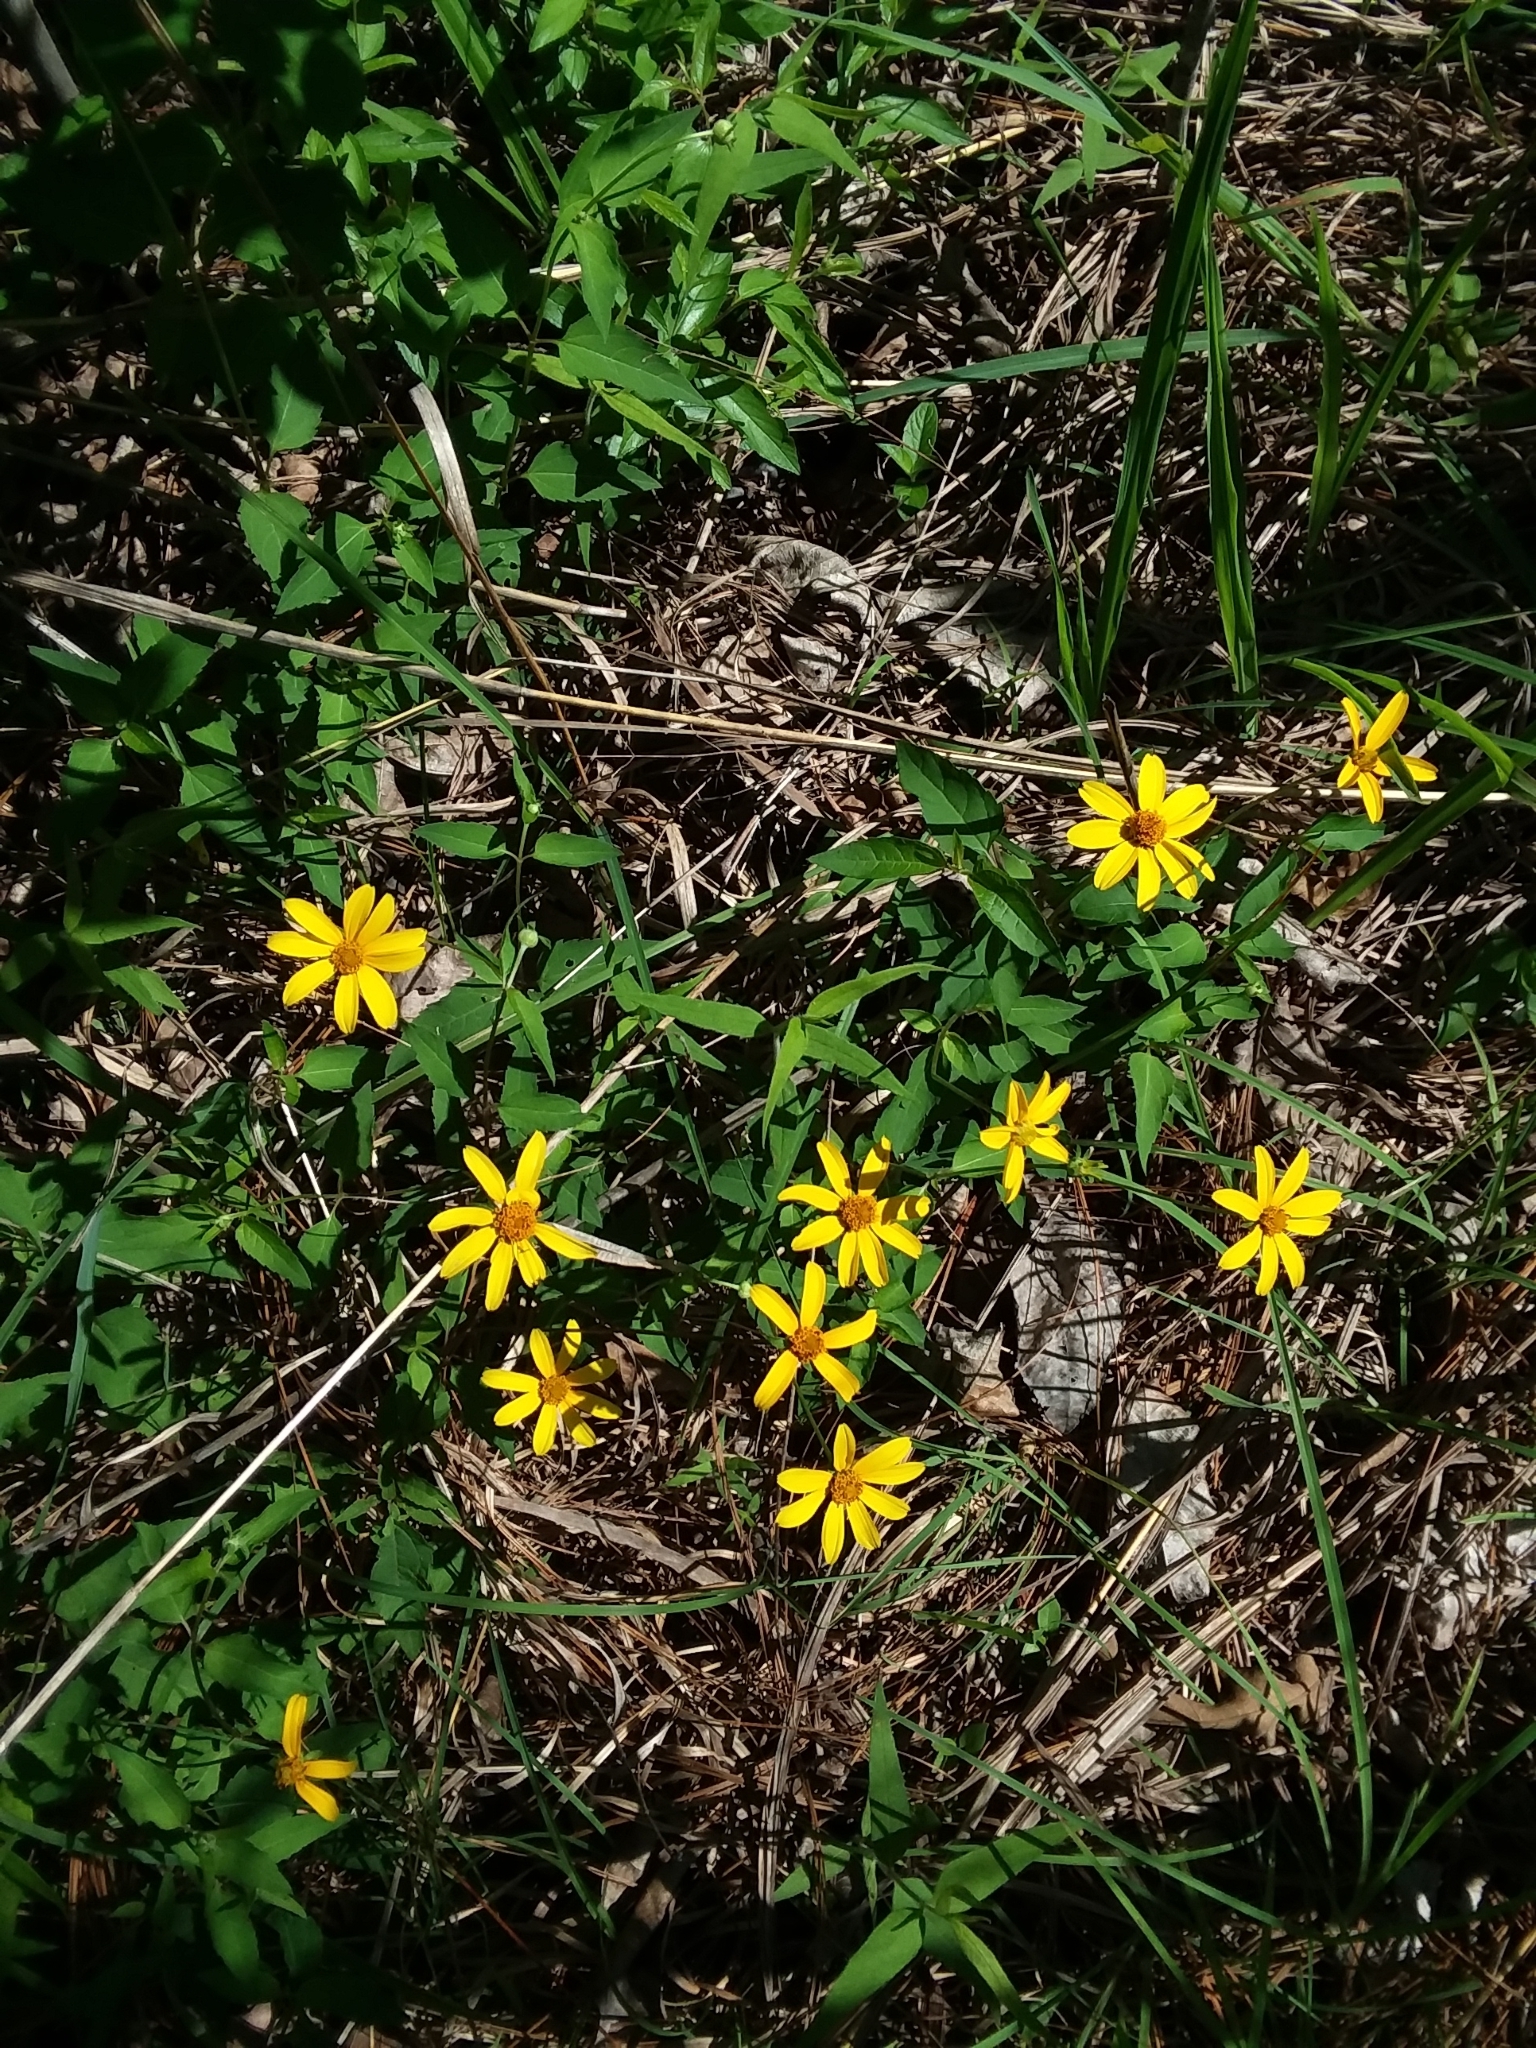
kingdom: Plantae
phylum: Tracheophyta
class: Magnoliopsida
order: Asterales
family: Asteraceae
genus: Heliopsis
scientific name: Heliopsis gracilis
